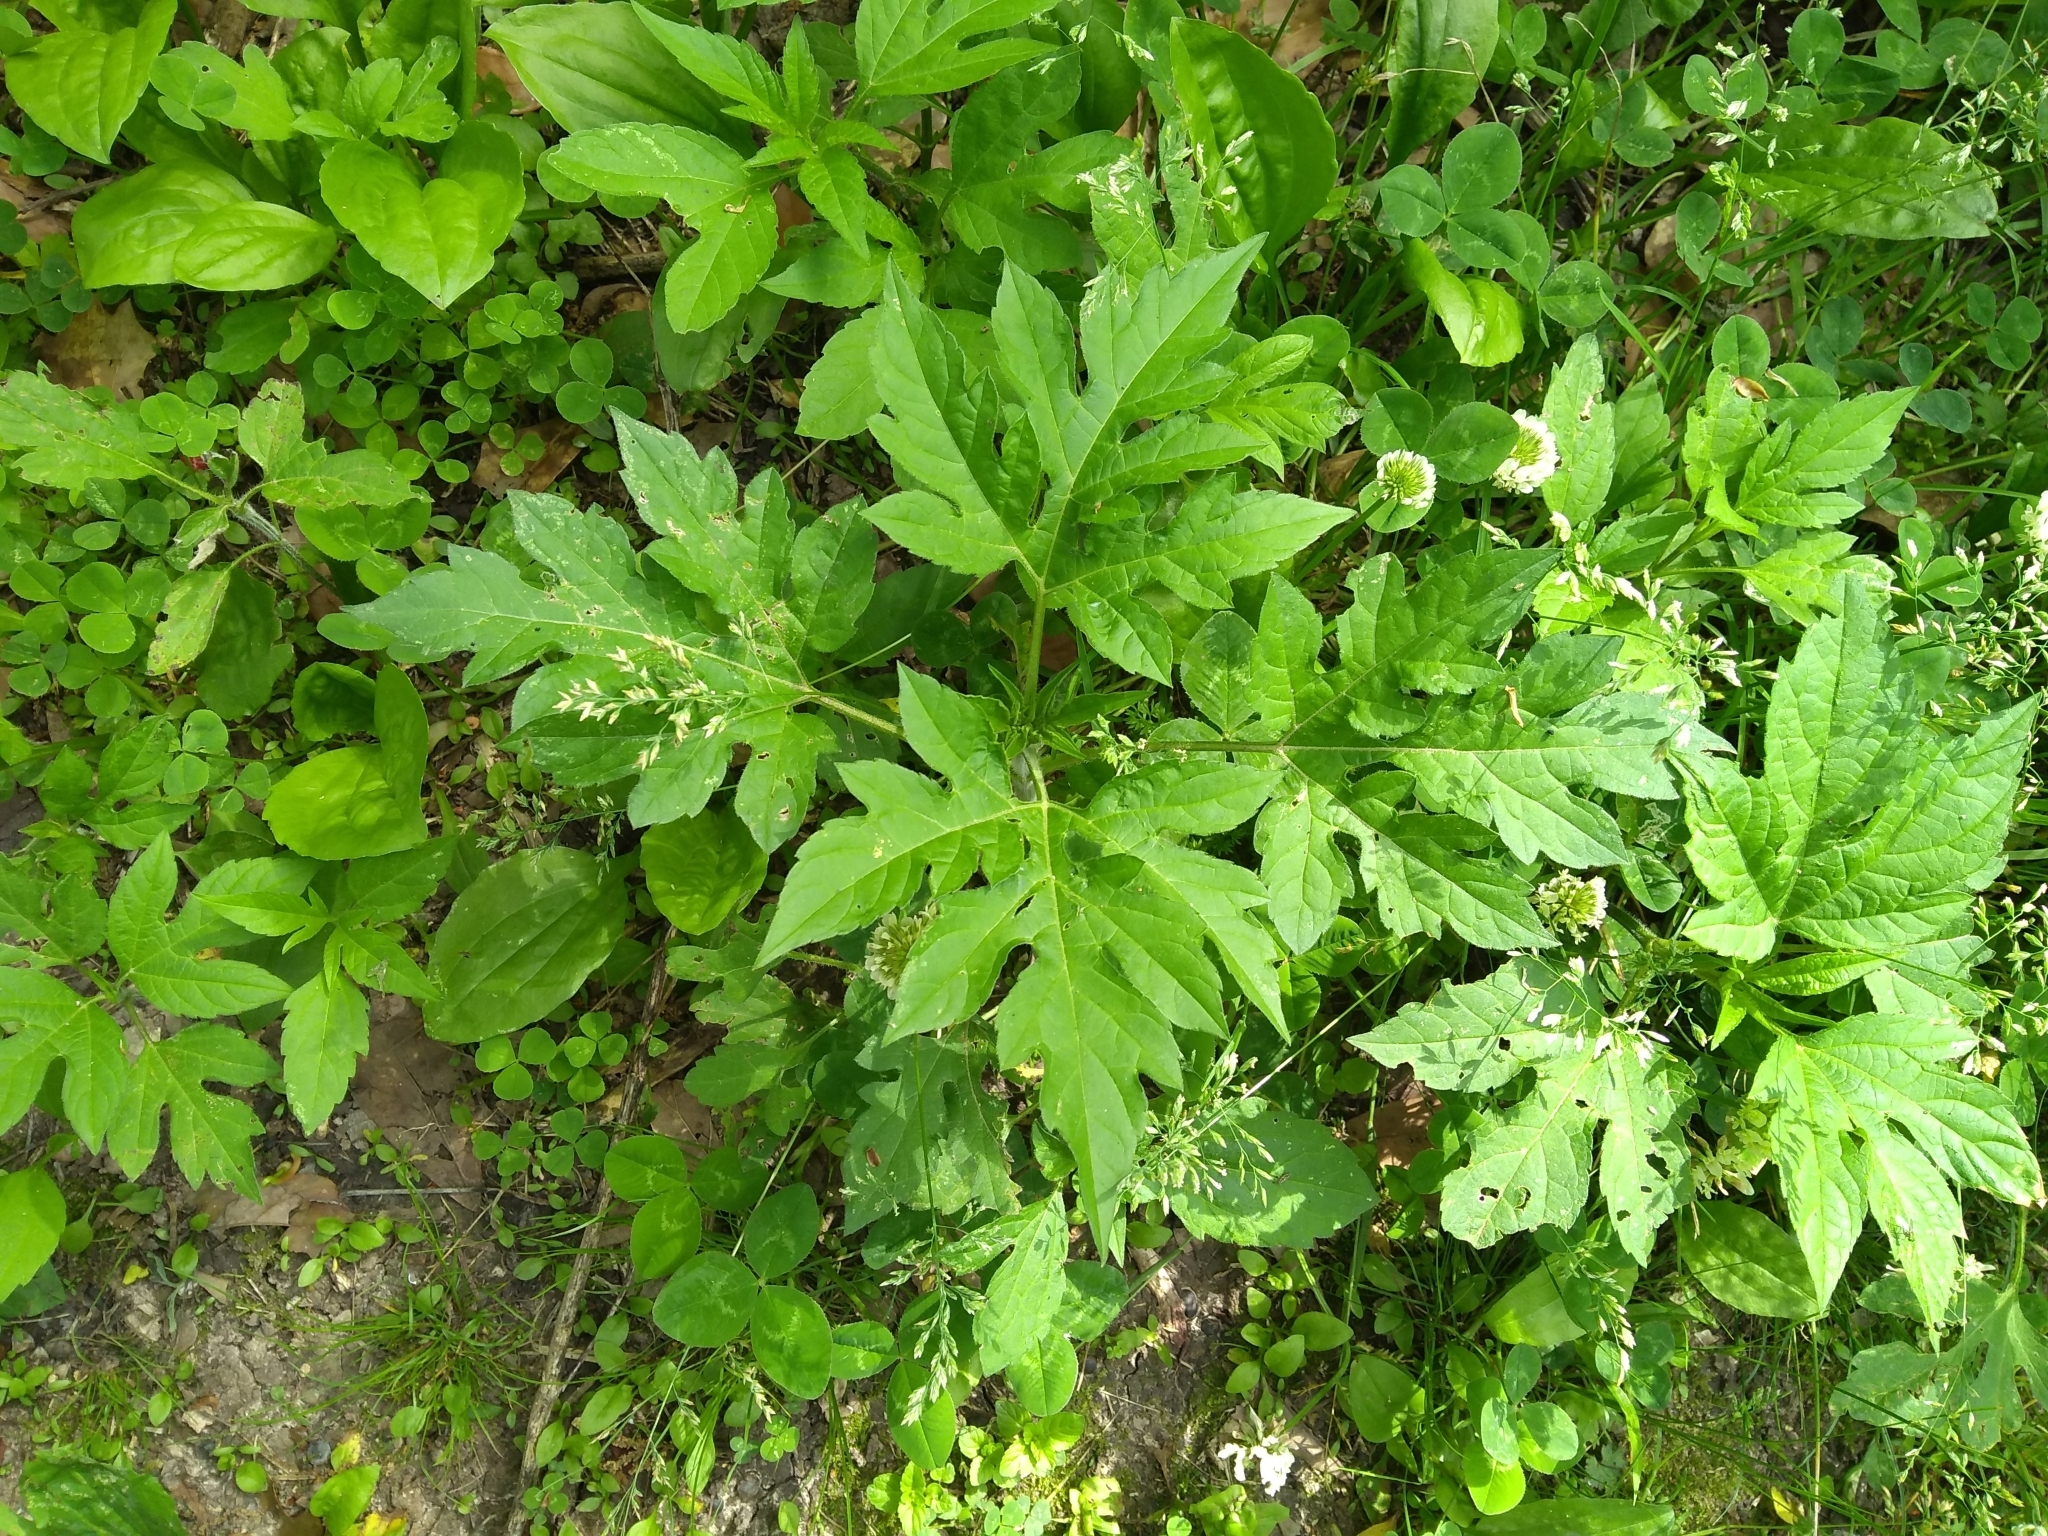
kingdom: Plantae
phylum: Tracheophyta
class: Magnoliopsida
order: Asterales
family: Asteraceae
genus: Ambrosia
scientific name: Ambrosia trifida
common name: Giant ragweed
